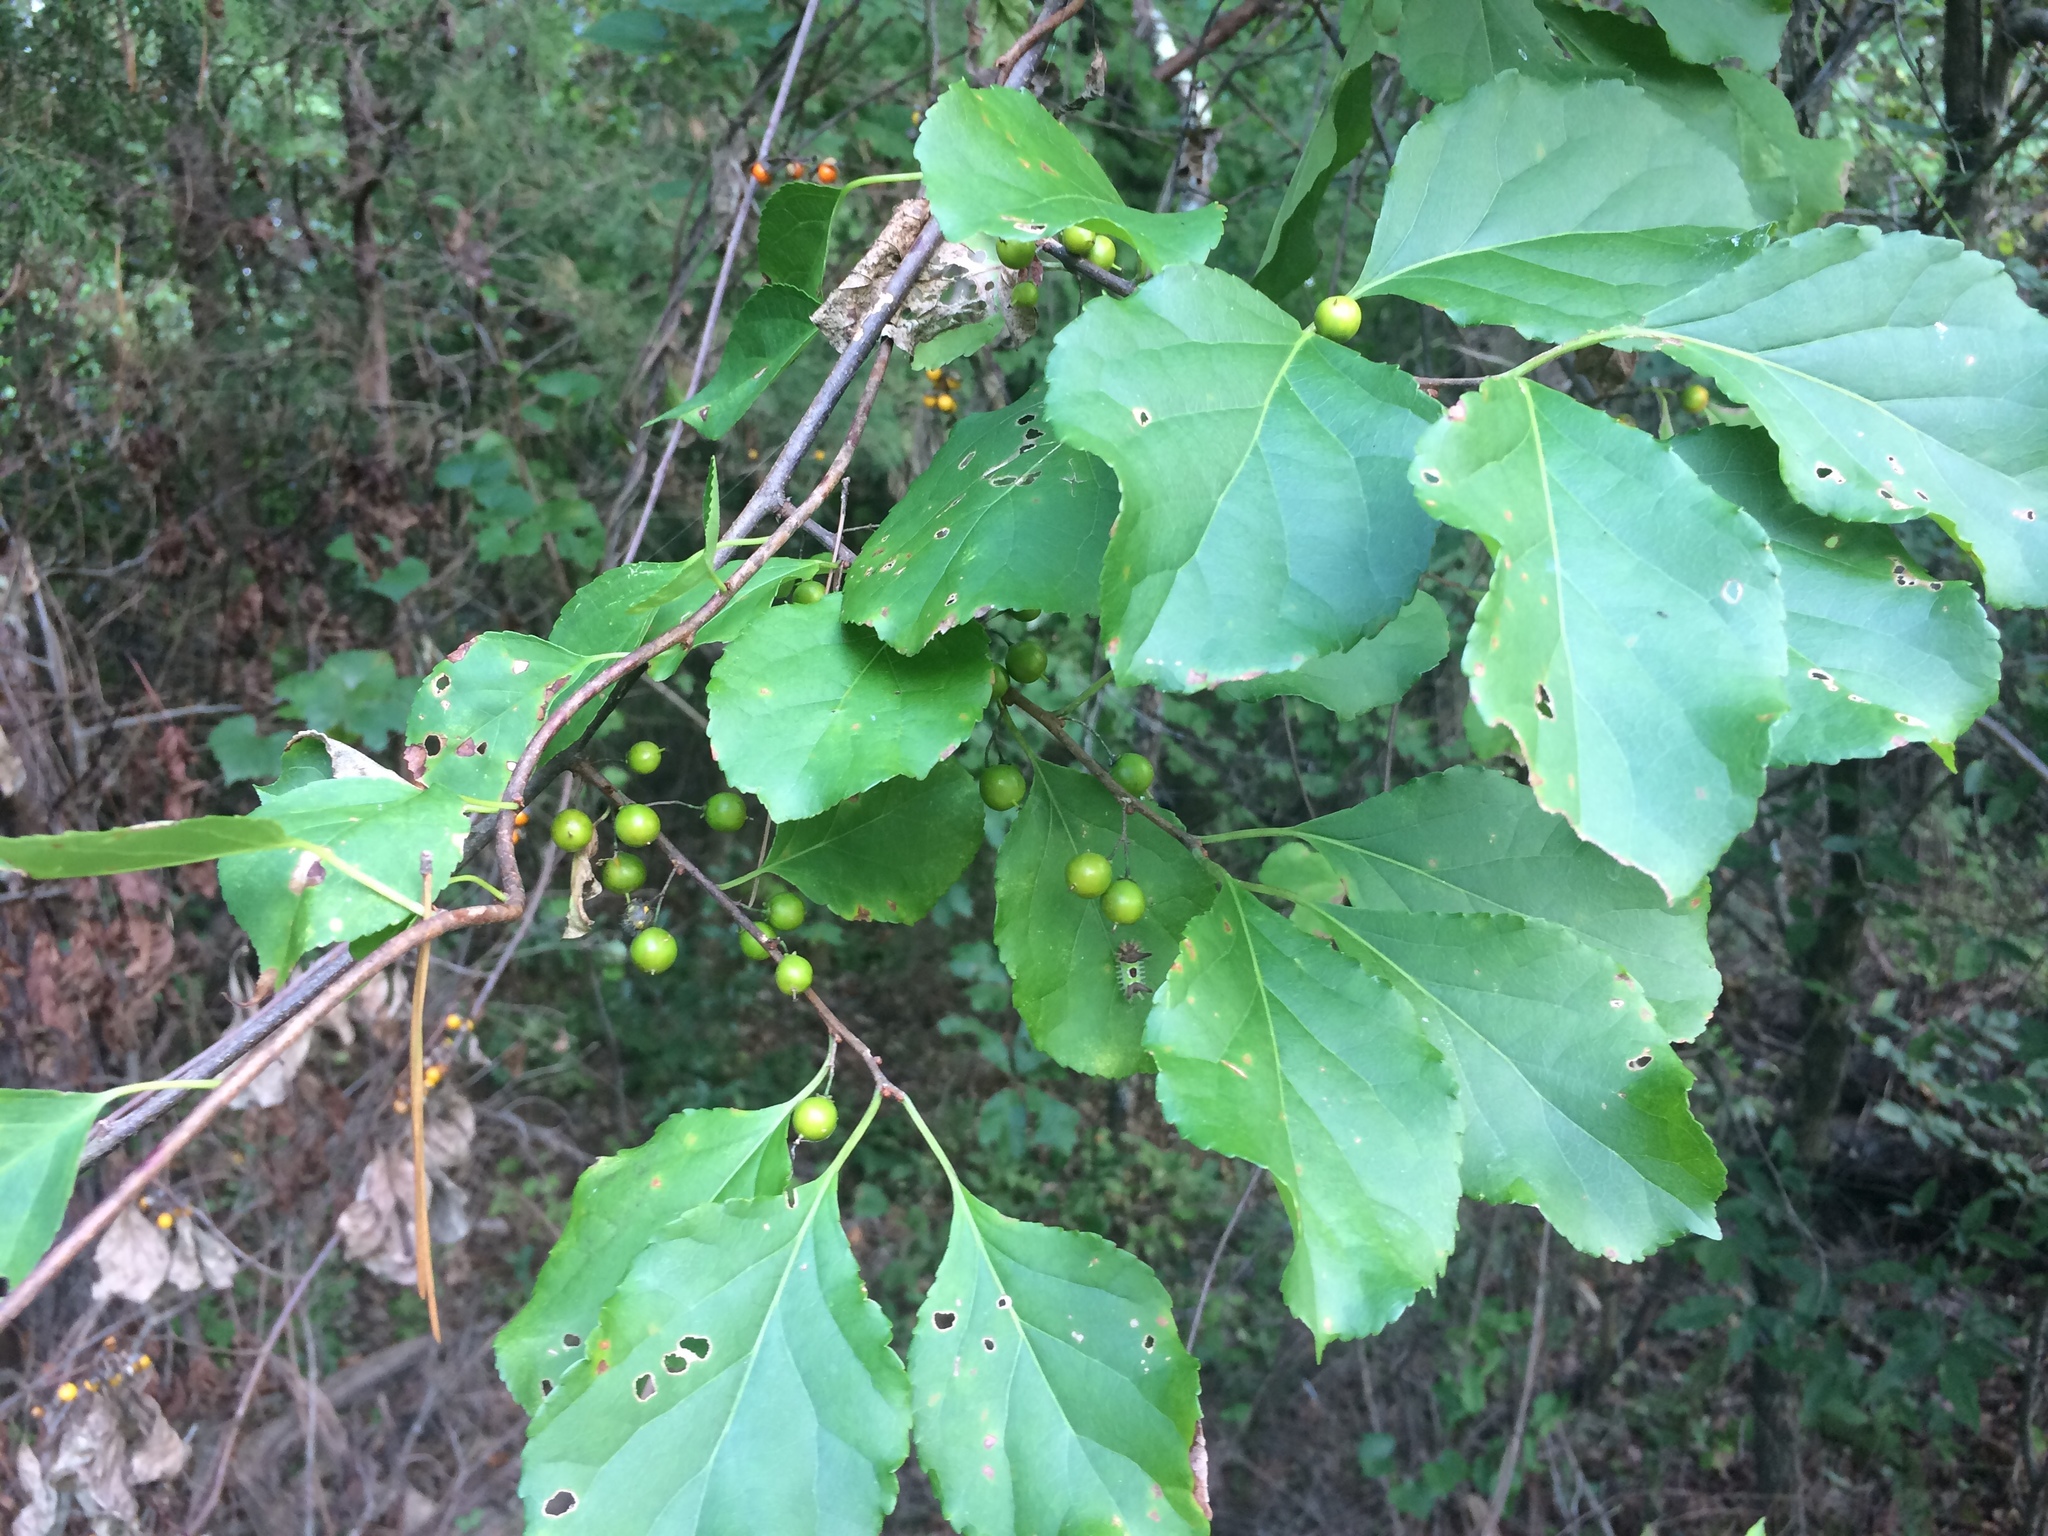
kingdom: Plantae
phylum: Tracheophyta
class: Magnoliopsida
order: Celastrales
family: Celastraceae
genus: Celastrus
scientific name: Celastrus orbiculatus
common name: Oriental bittersweet
